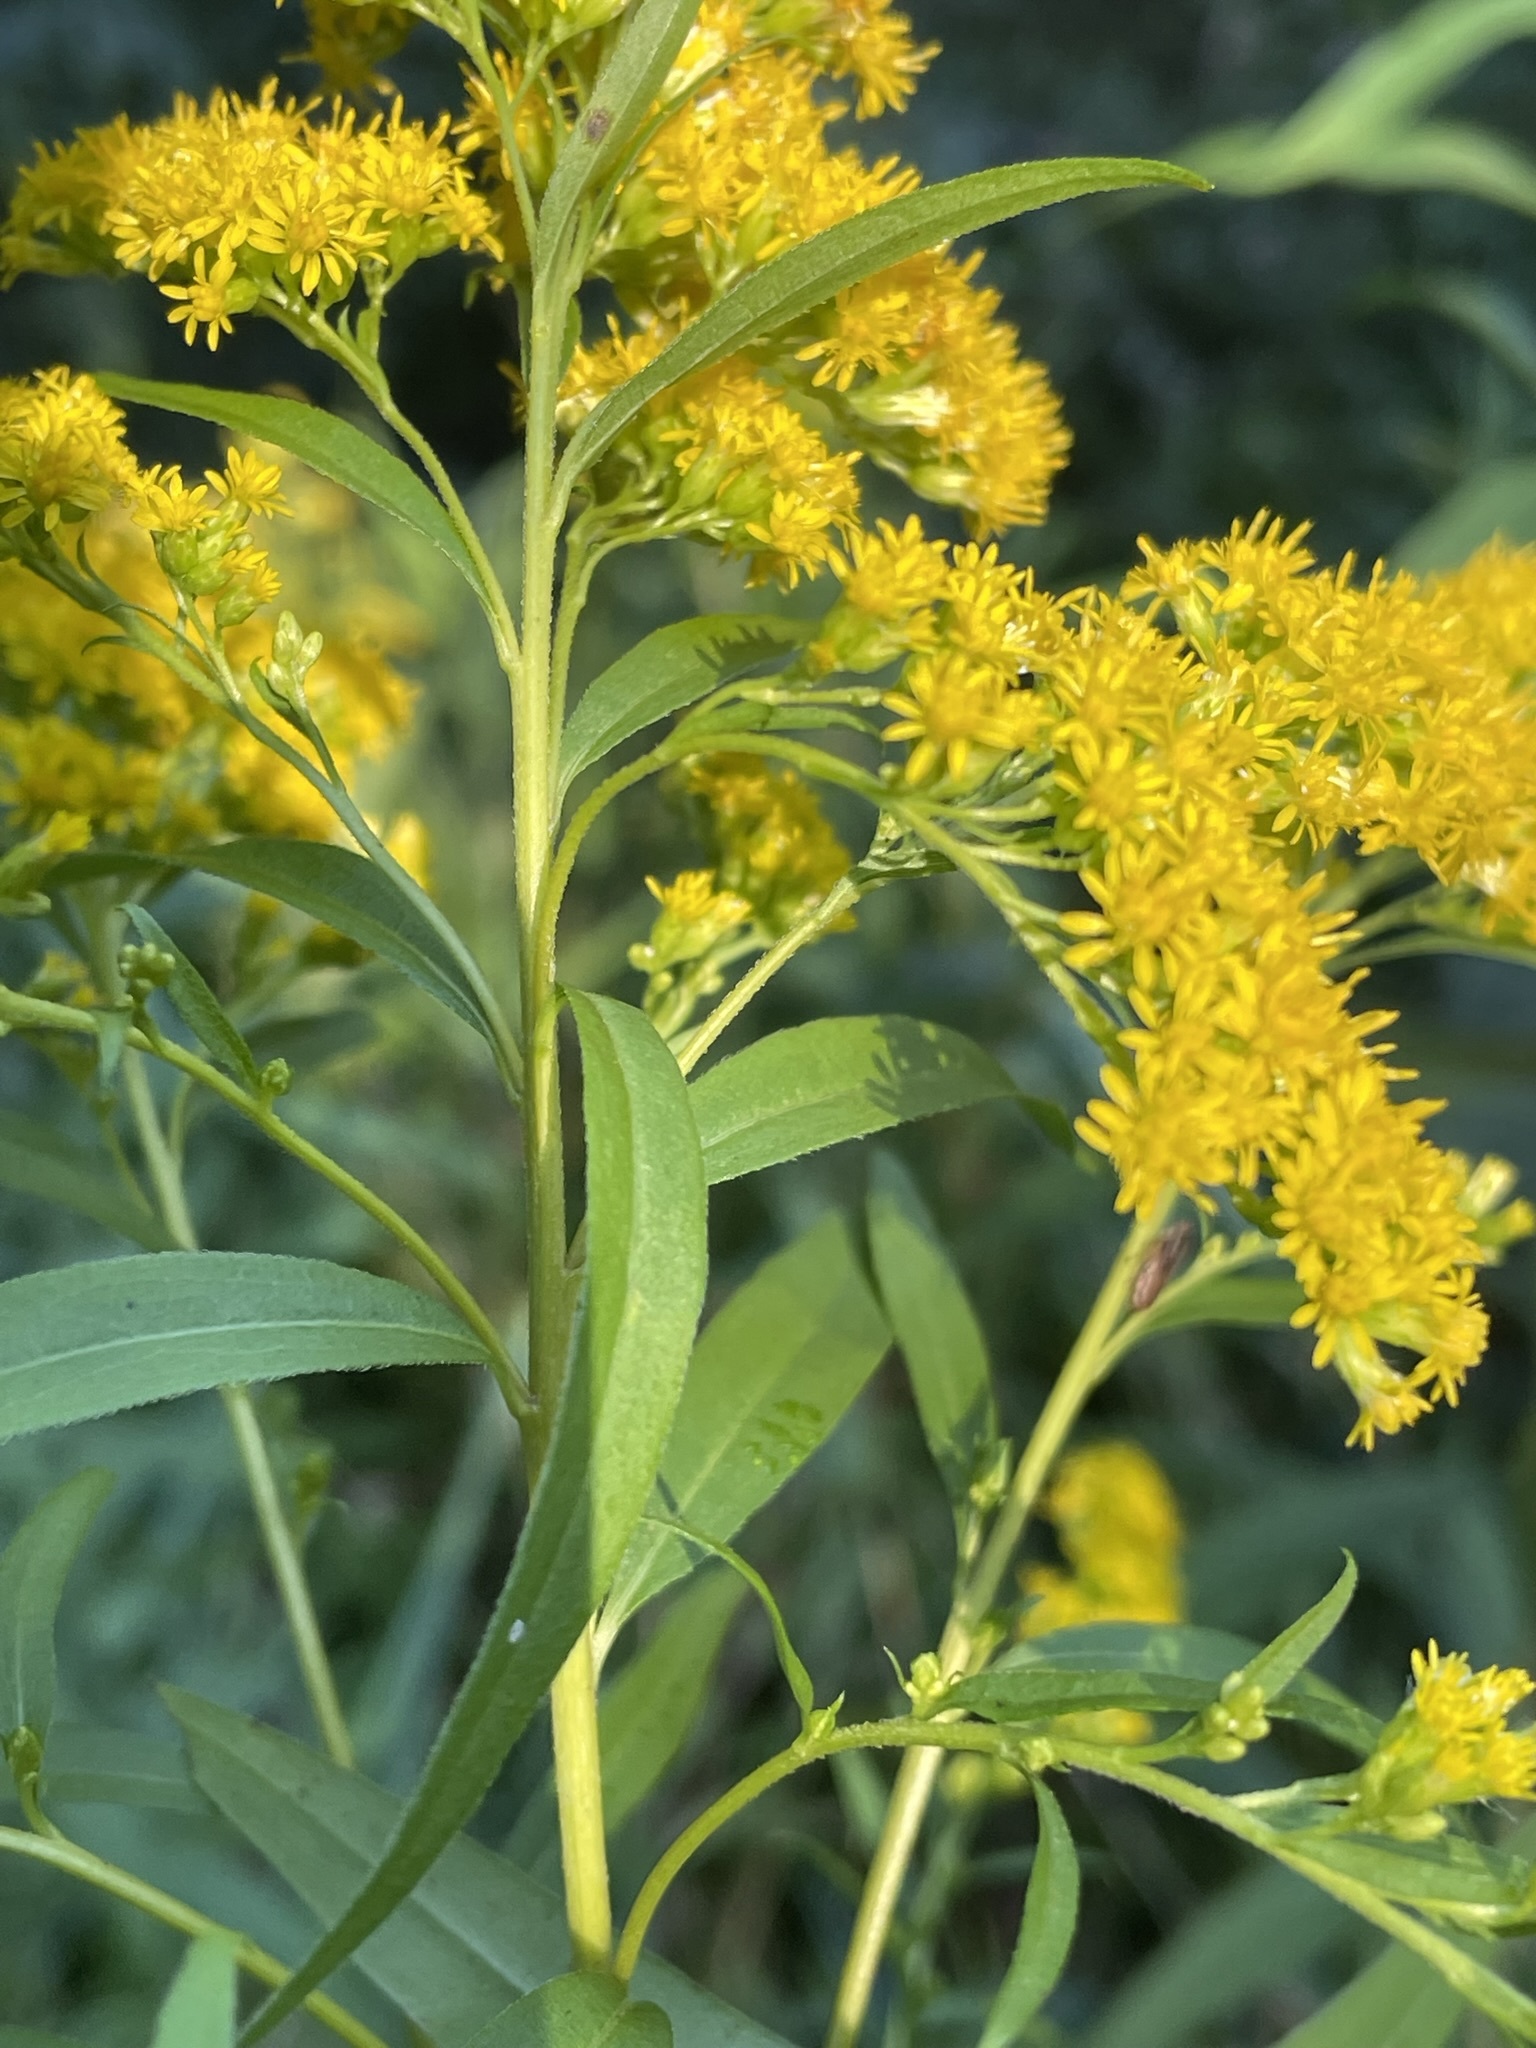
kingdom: Plantae
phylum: Tracheophyta
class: Magnoliopsida
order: Asterales
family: Asteraceae
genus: Solidago
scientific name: Solidago gigantea
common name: Giant goldenrod
